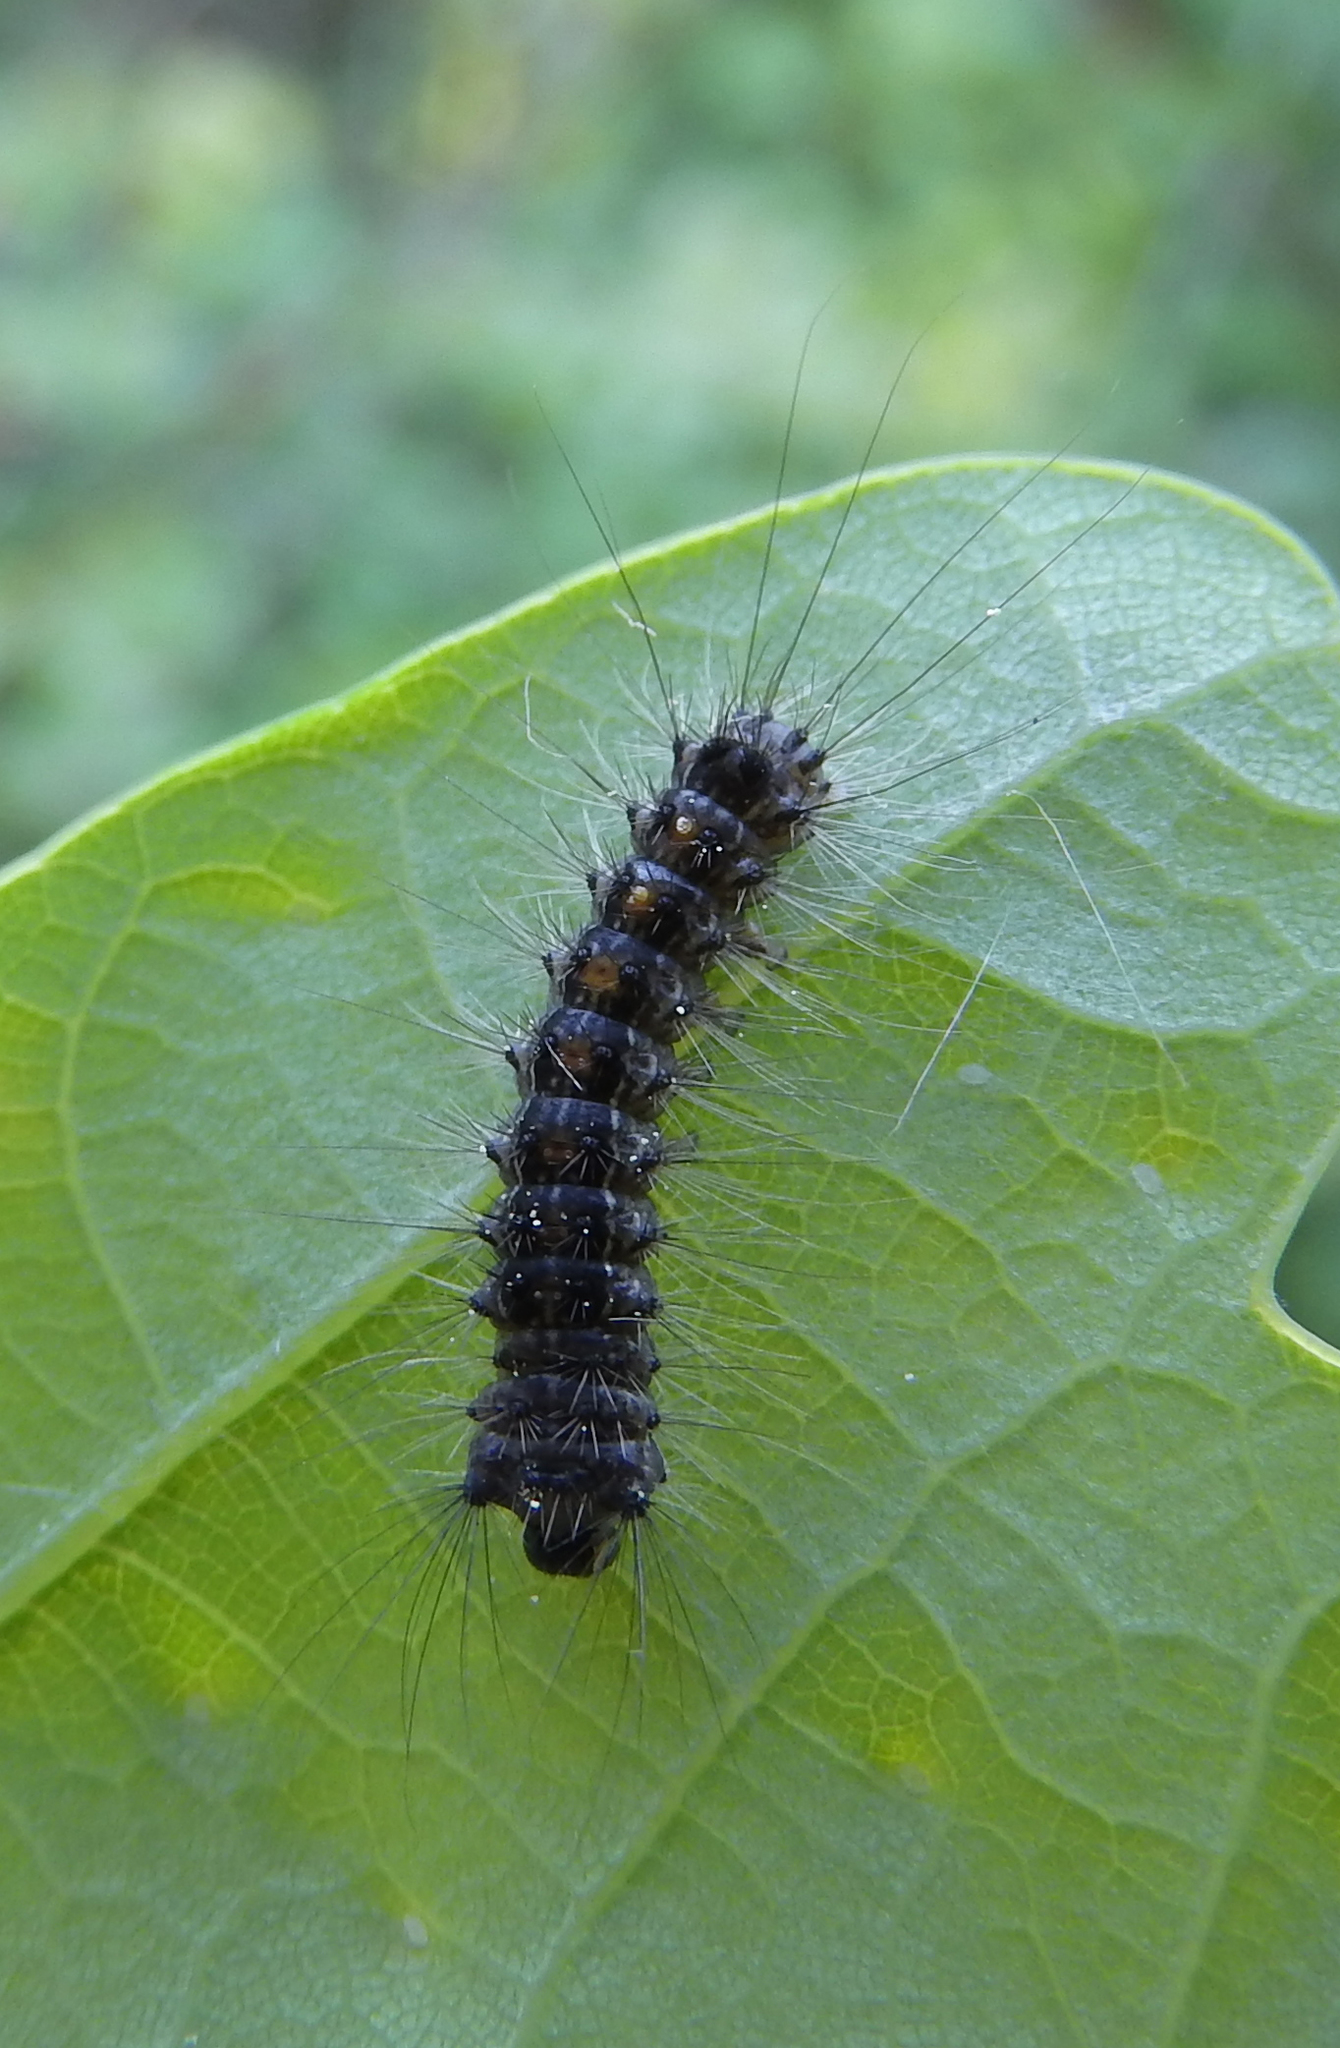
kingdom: Animalia
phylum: Arthropoda
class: Insecta
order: Lepidoptera
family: Erebidae
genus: Lymantria
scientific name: Lymantria dispar
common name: Gypsy moth
